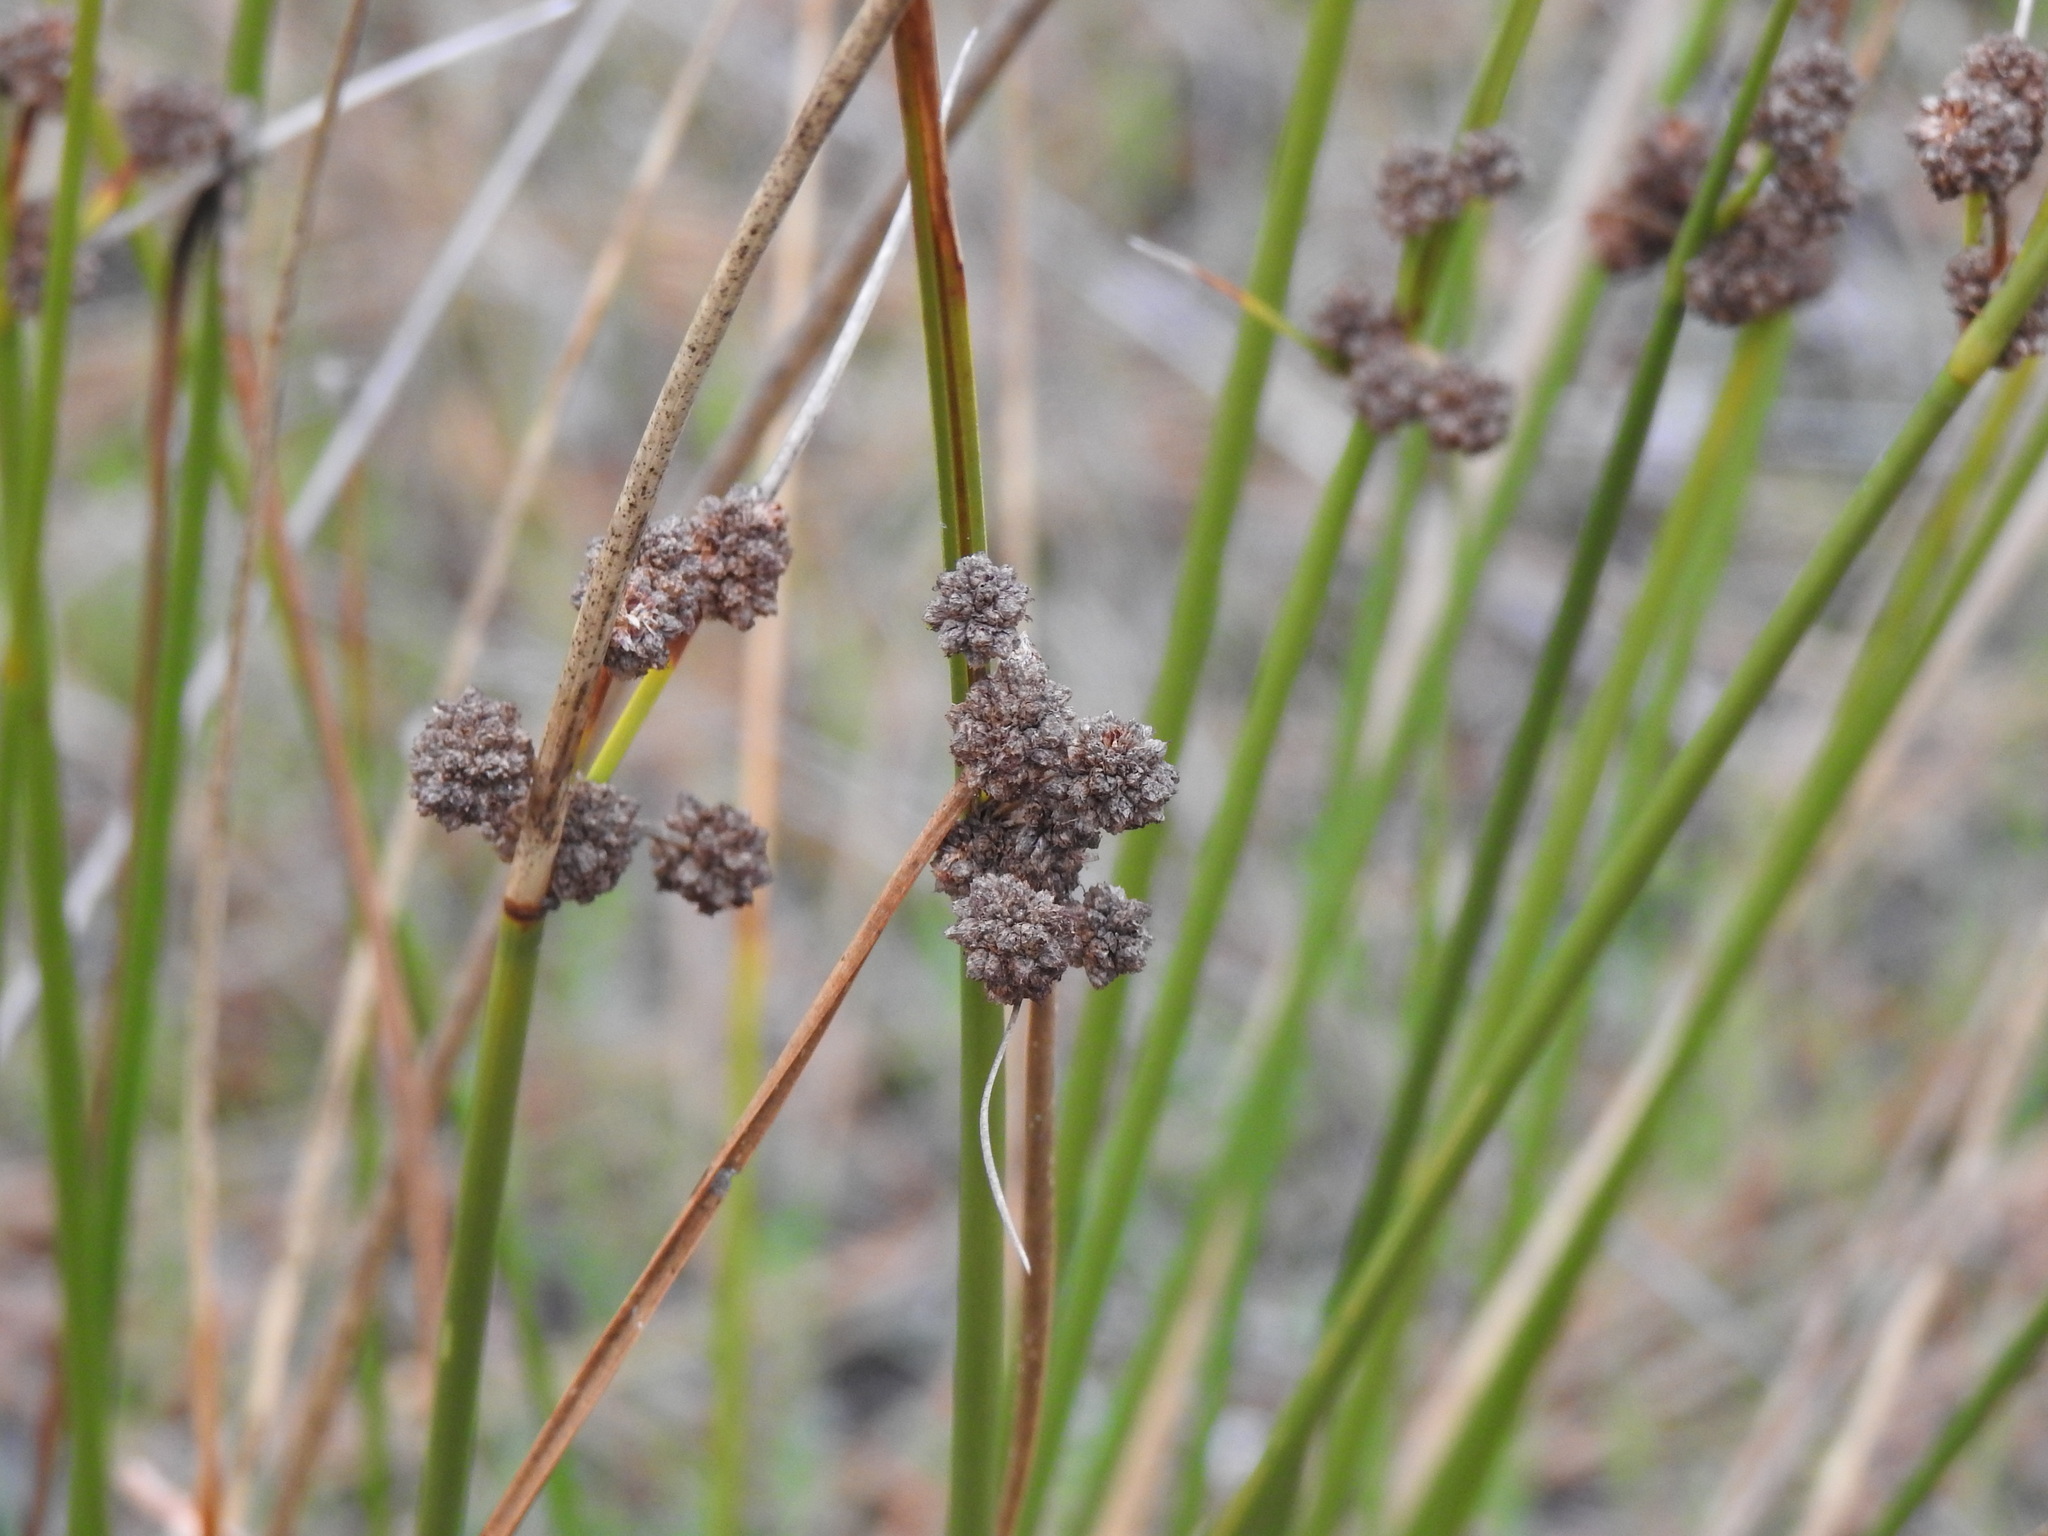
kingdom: Plantae
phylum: Tracheophyta
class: Liliopsida
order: Poales
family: Cyperaceae
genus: Scirpoides
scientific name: Scirpoides holoschoenus
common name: Round-headed club-rush
